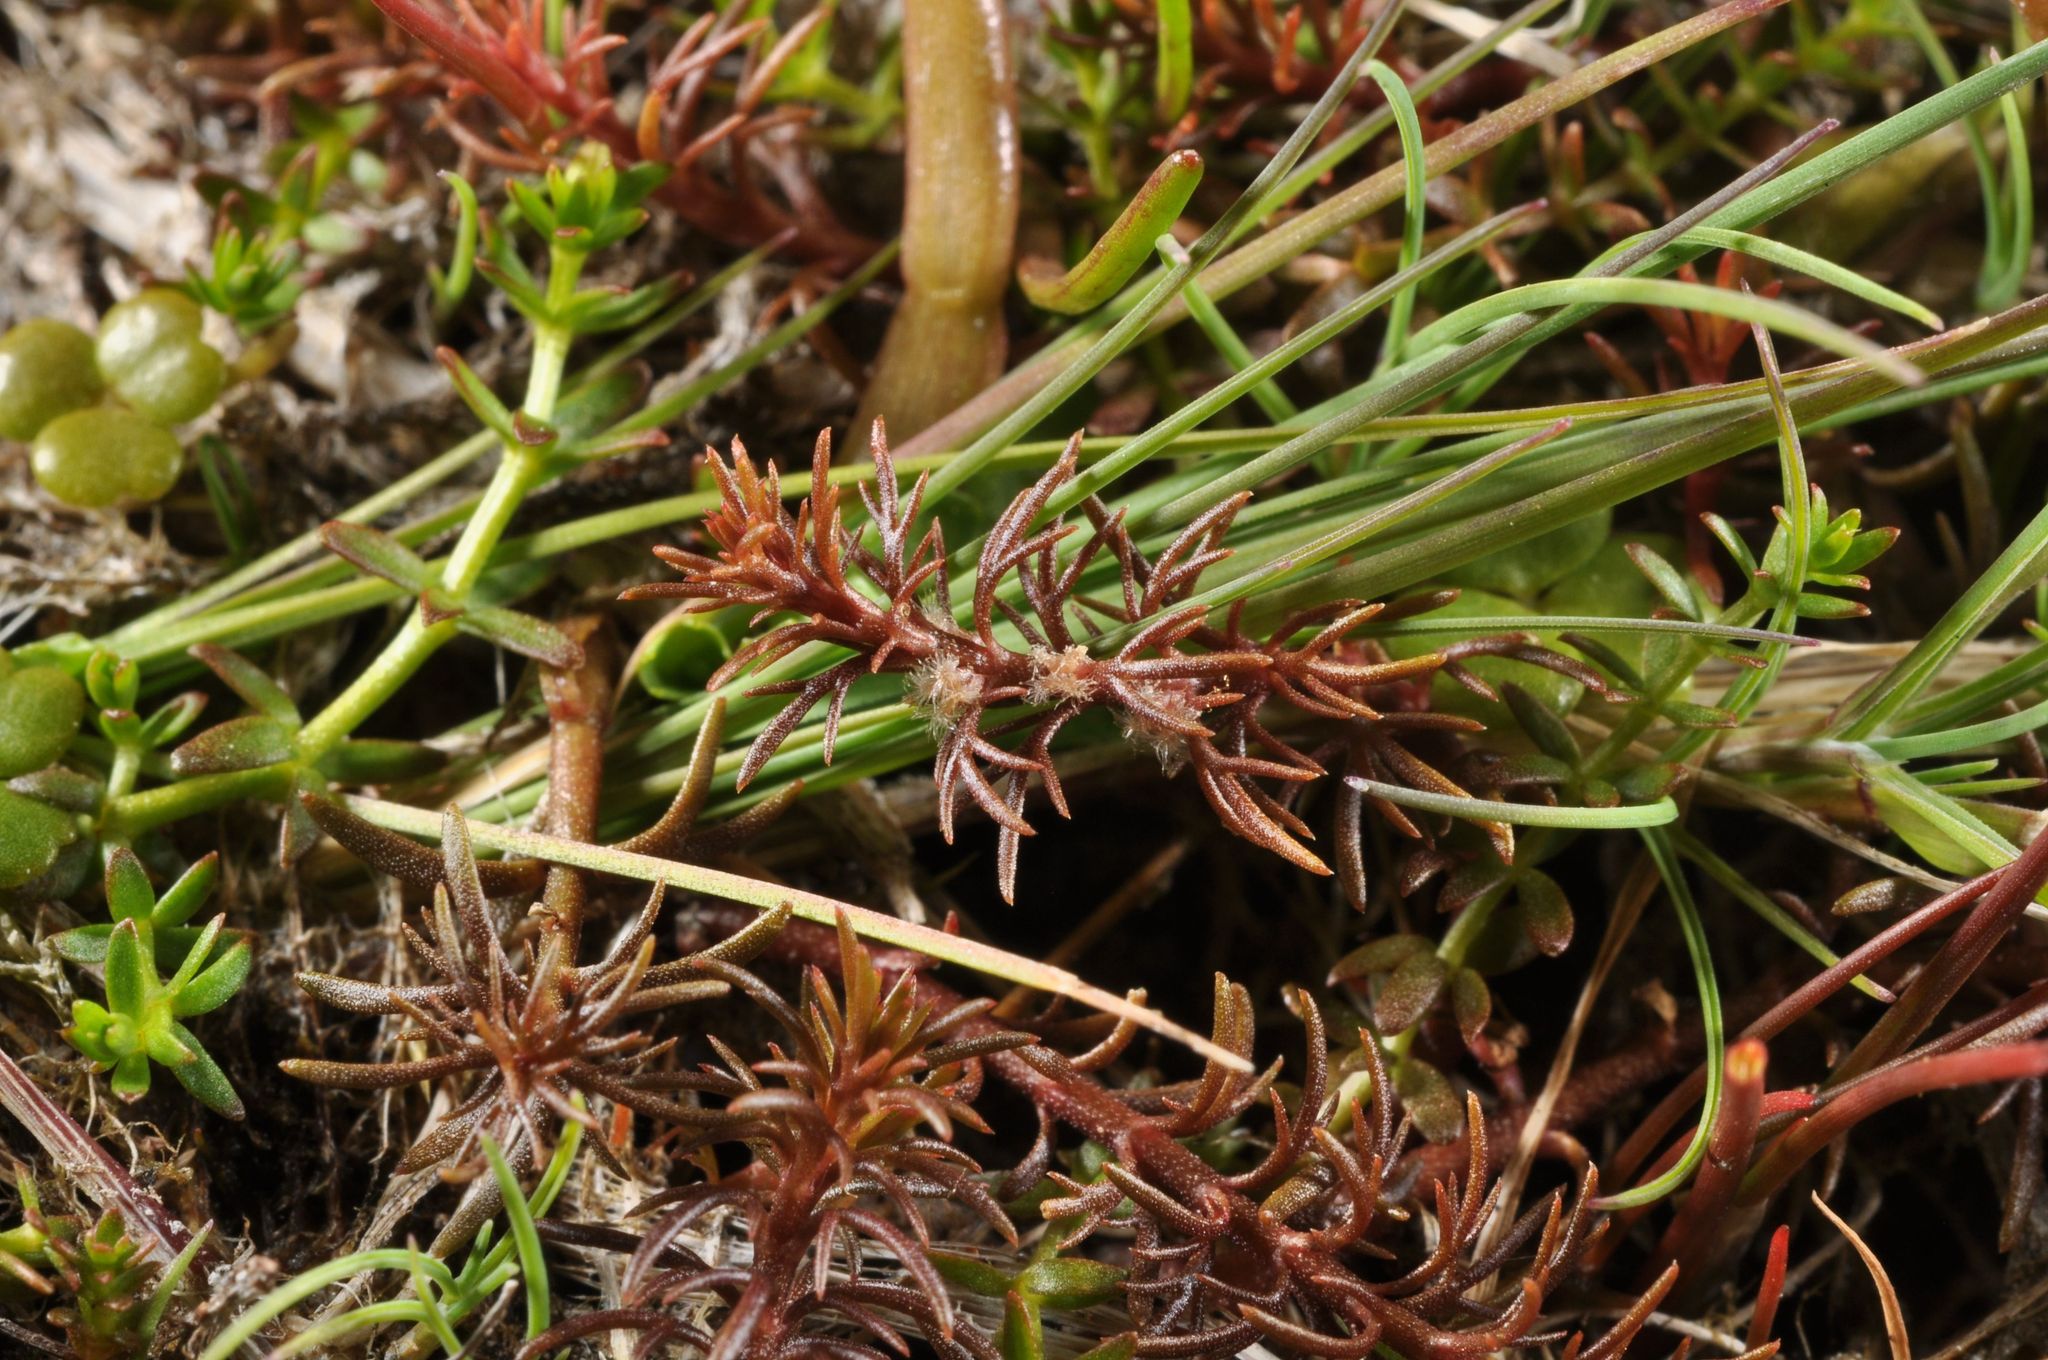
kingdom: Plantae
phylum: Tracheophyta
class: Magnoliopsida
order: Saxifragales
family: Haloragaceae
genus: Myriophyllum
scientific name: Myriophyllum propinquum
